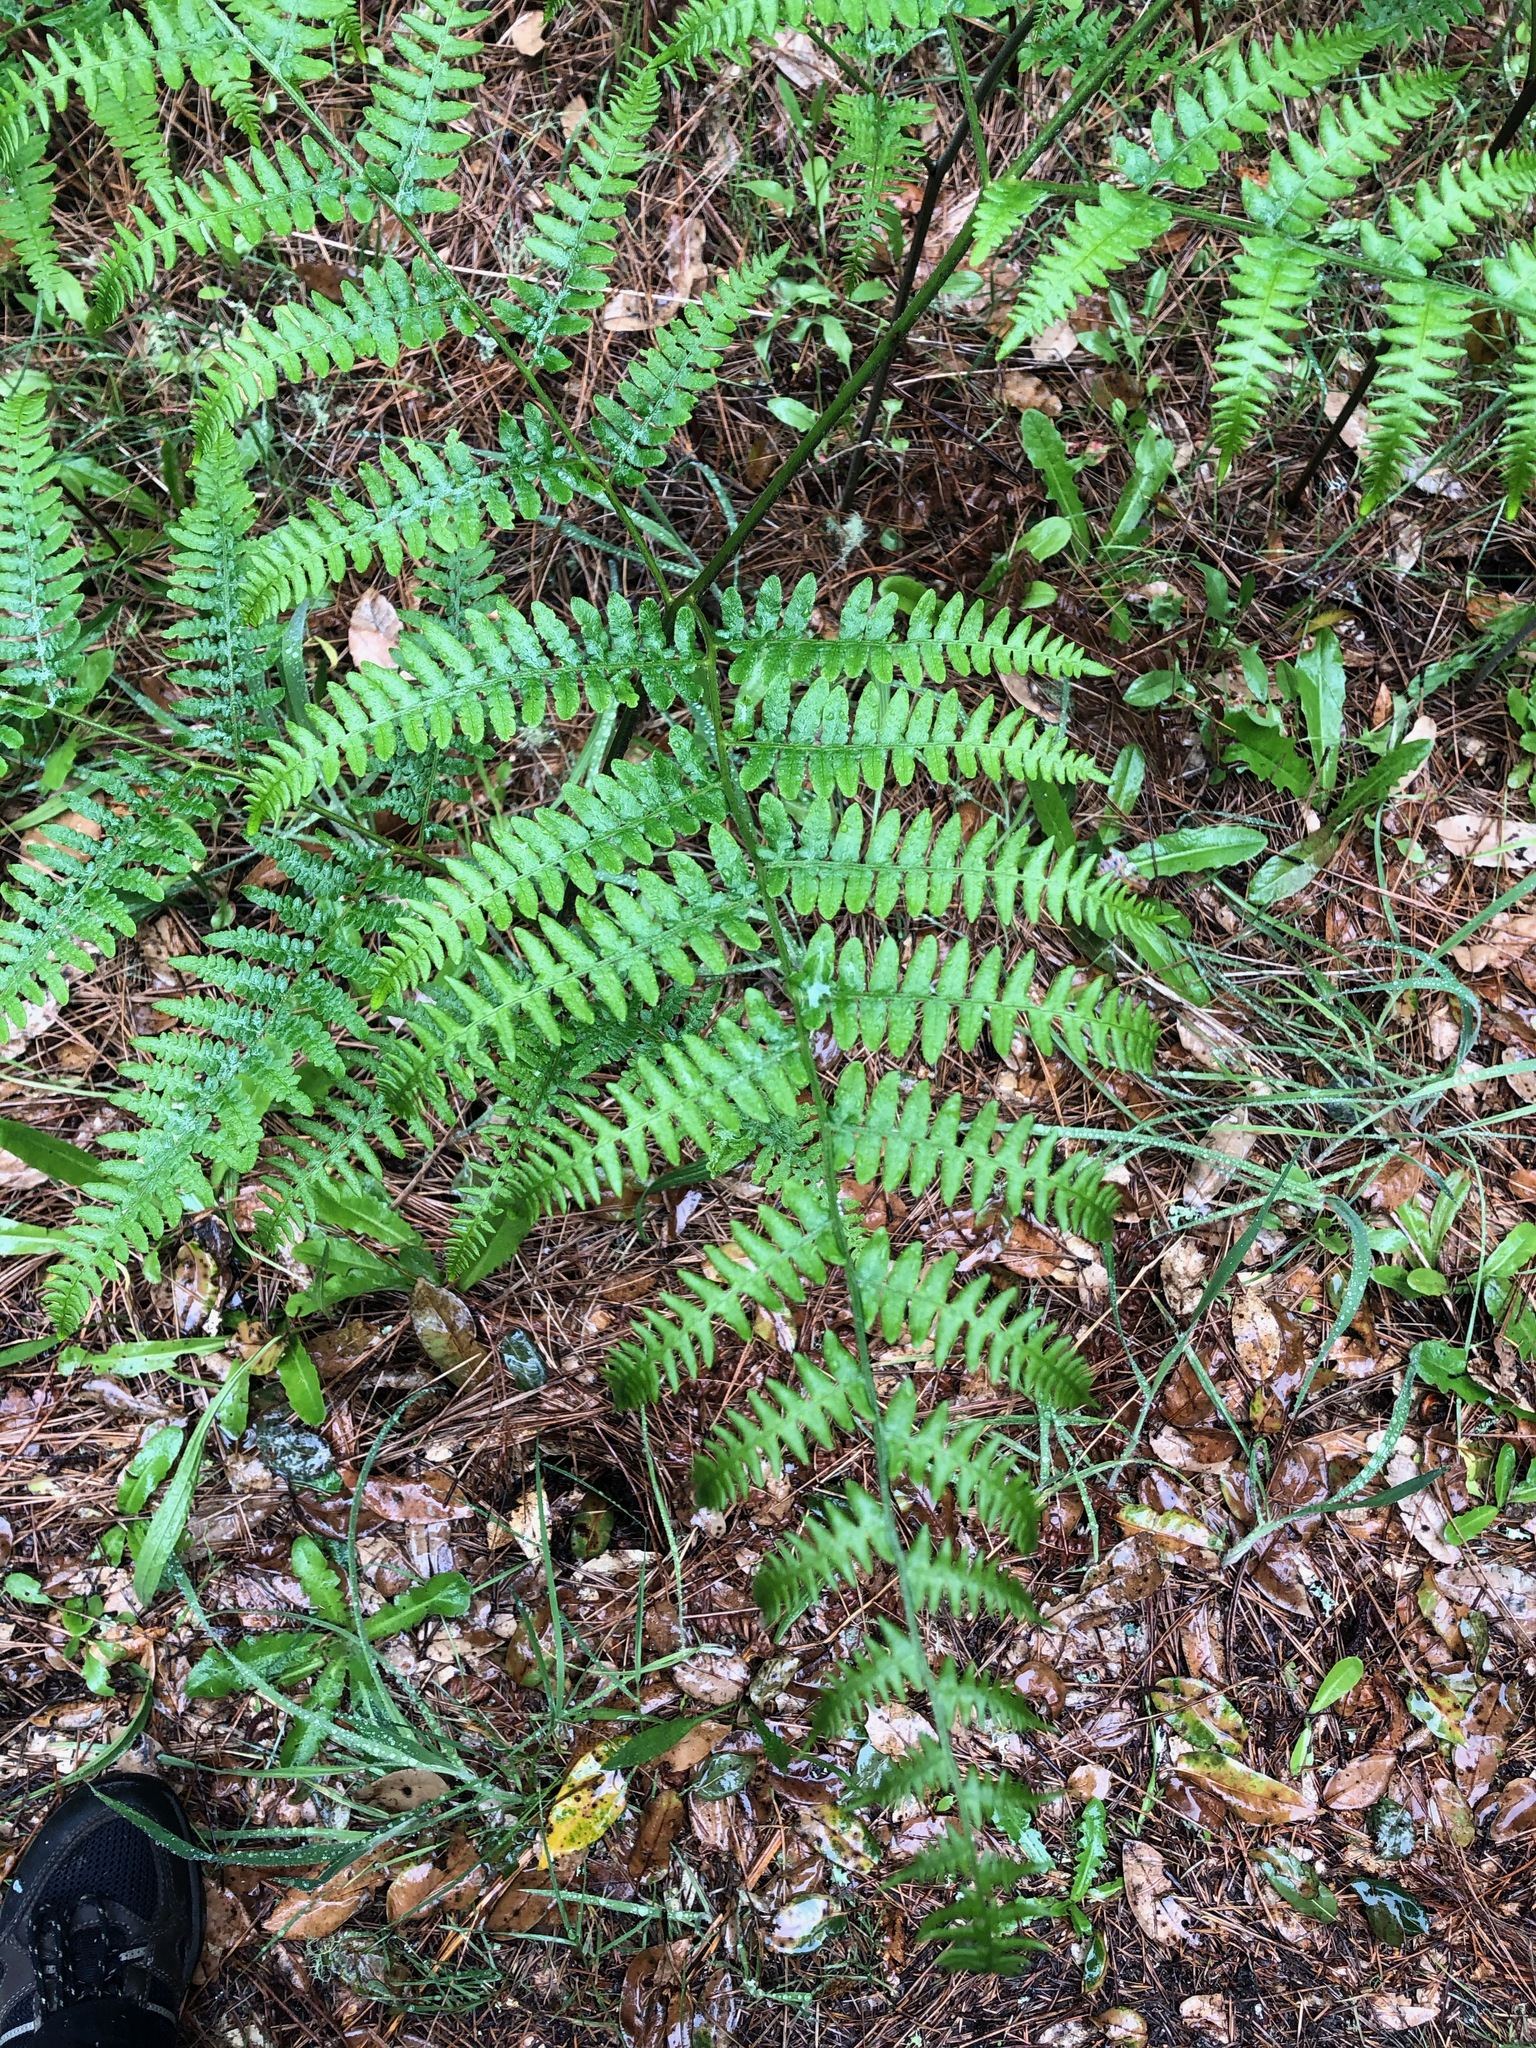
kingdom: Plantae
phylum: Tracheophyta
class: Polypodiopsida
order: Polypodiales
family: Dennstaedtiaceae
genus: Pteridium
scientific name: Pteridium aquilinum
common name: Bracken
